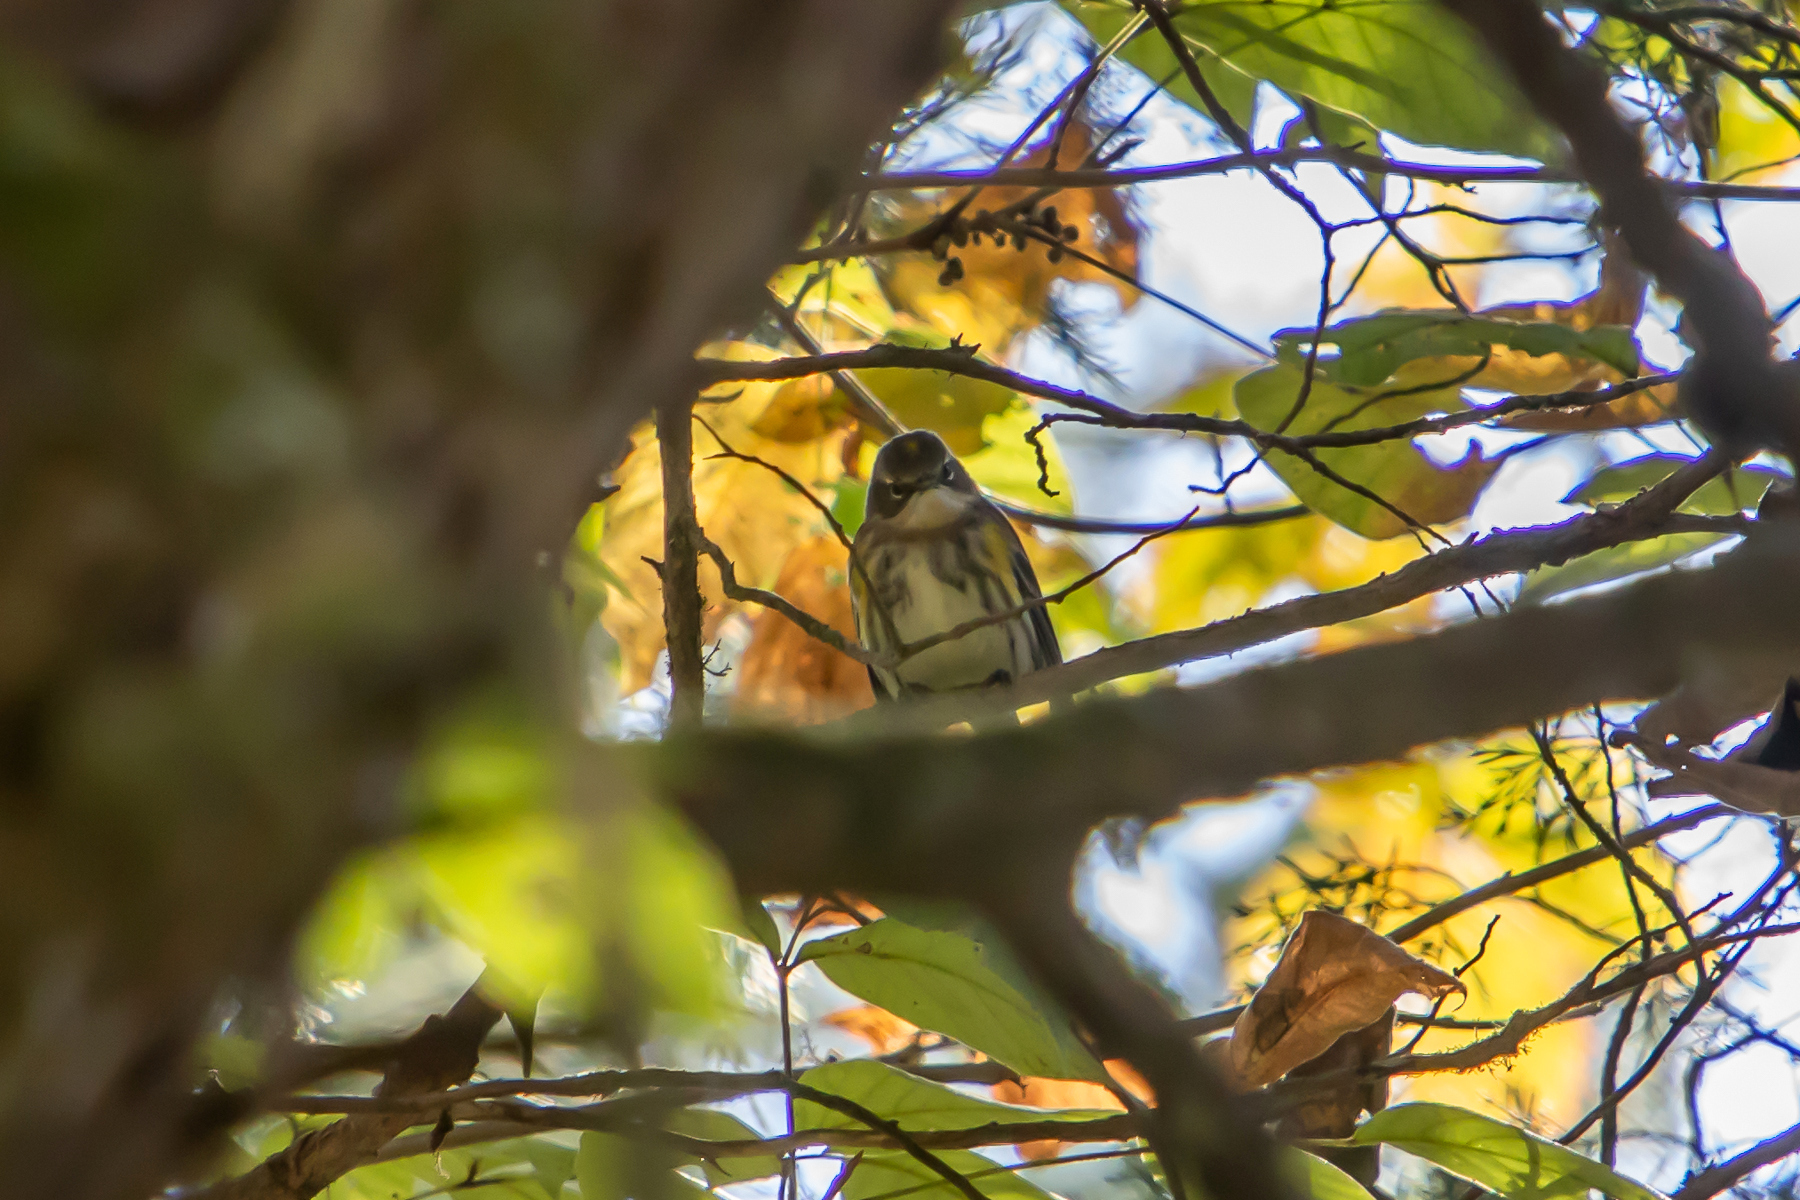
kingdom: Animalia
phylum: Chordata
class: Aves
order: Passeriformes
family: Parulidae
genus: Setophaga
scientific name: Setophaga coronata
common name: Myrtle warbler
